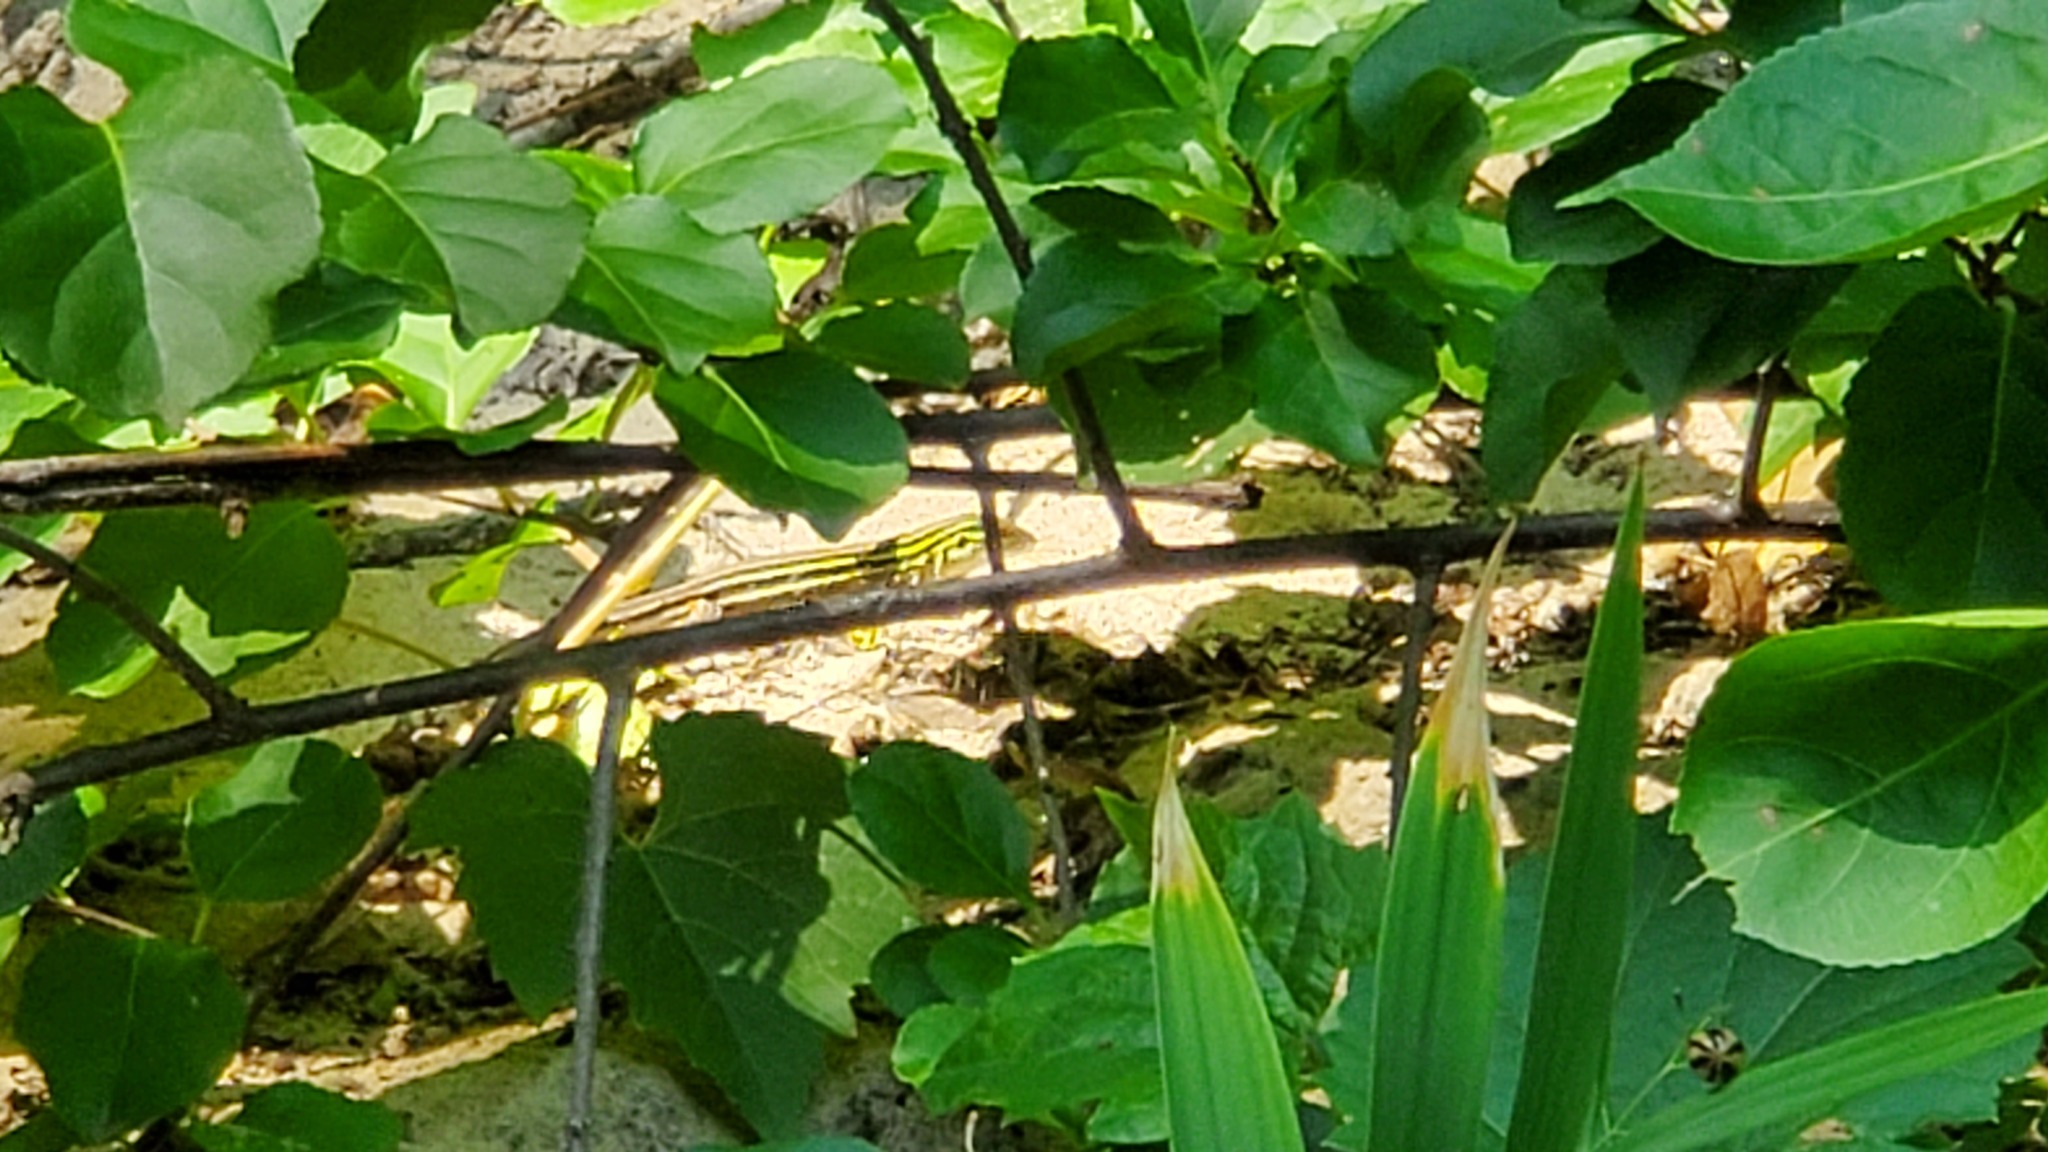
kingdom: Animalia
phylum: Chordata
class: Squamata
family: Teiidae
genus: Aspidoscelis
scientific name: Aspidoscelis sexlineatus
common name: Six-lined racerunner
